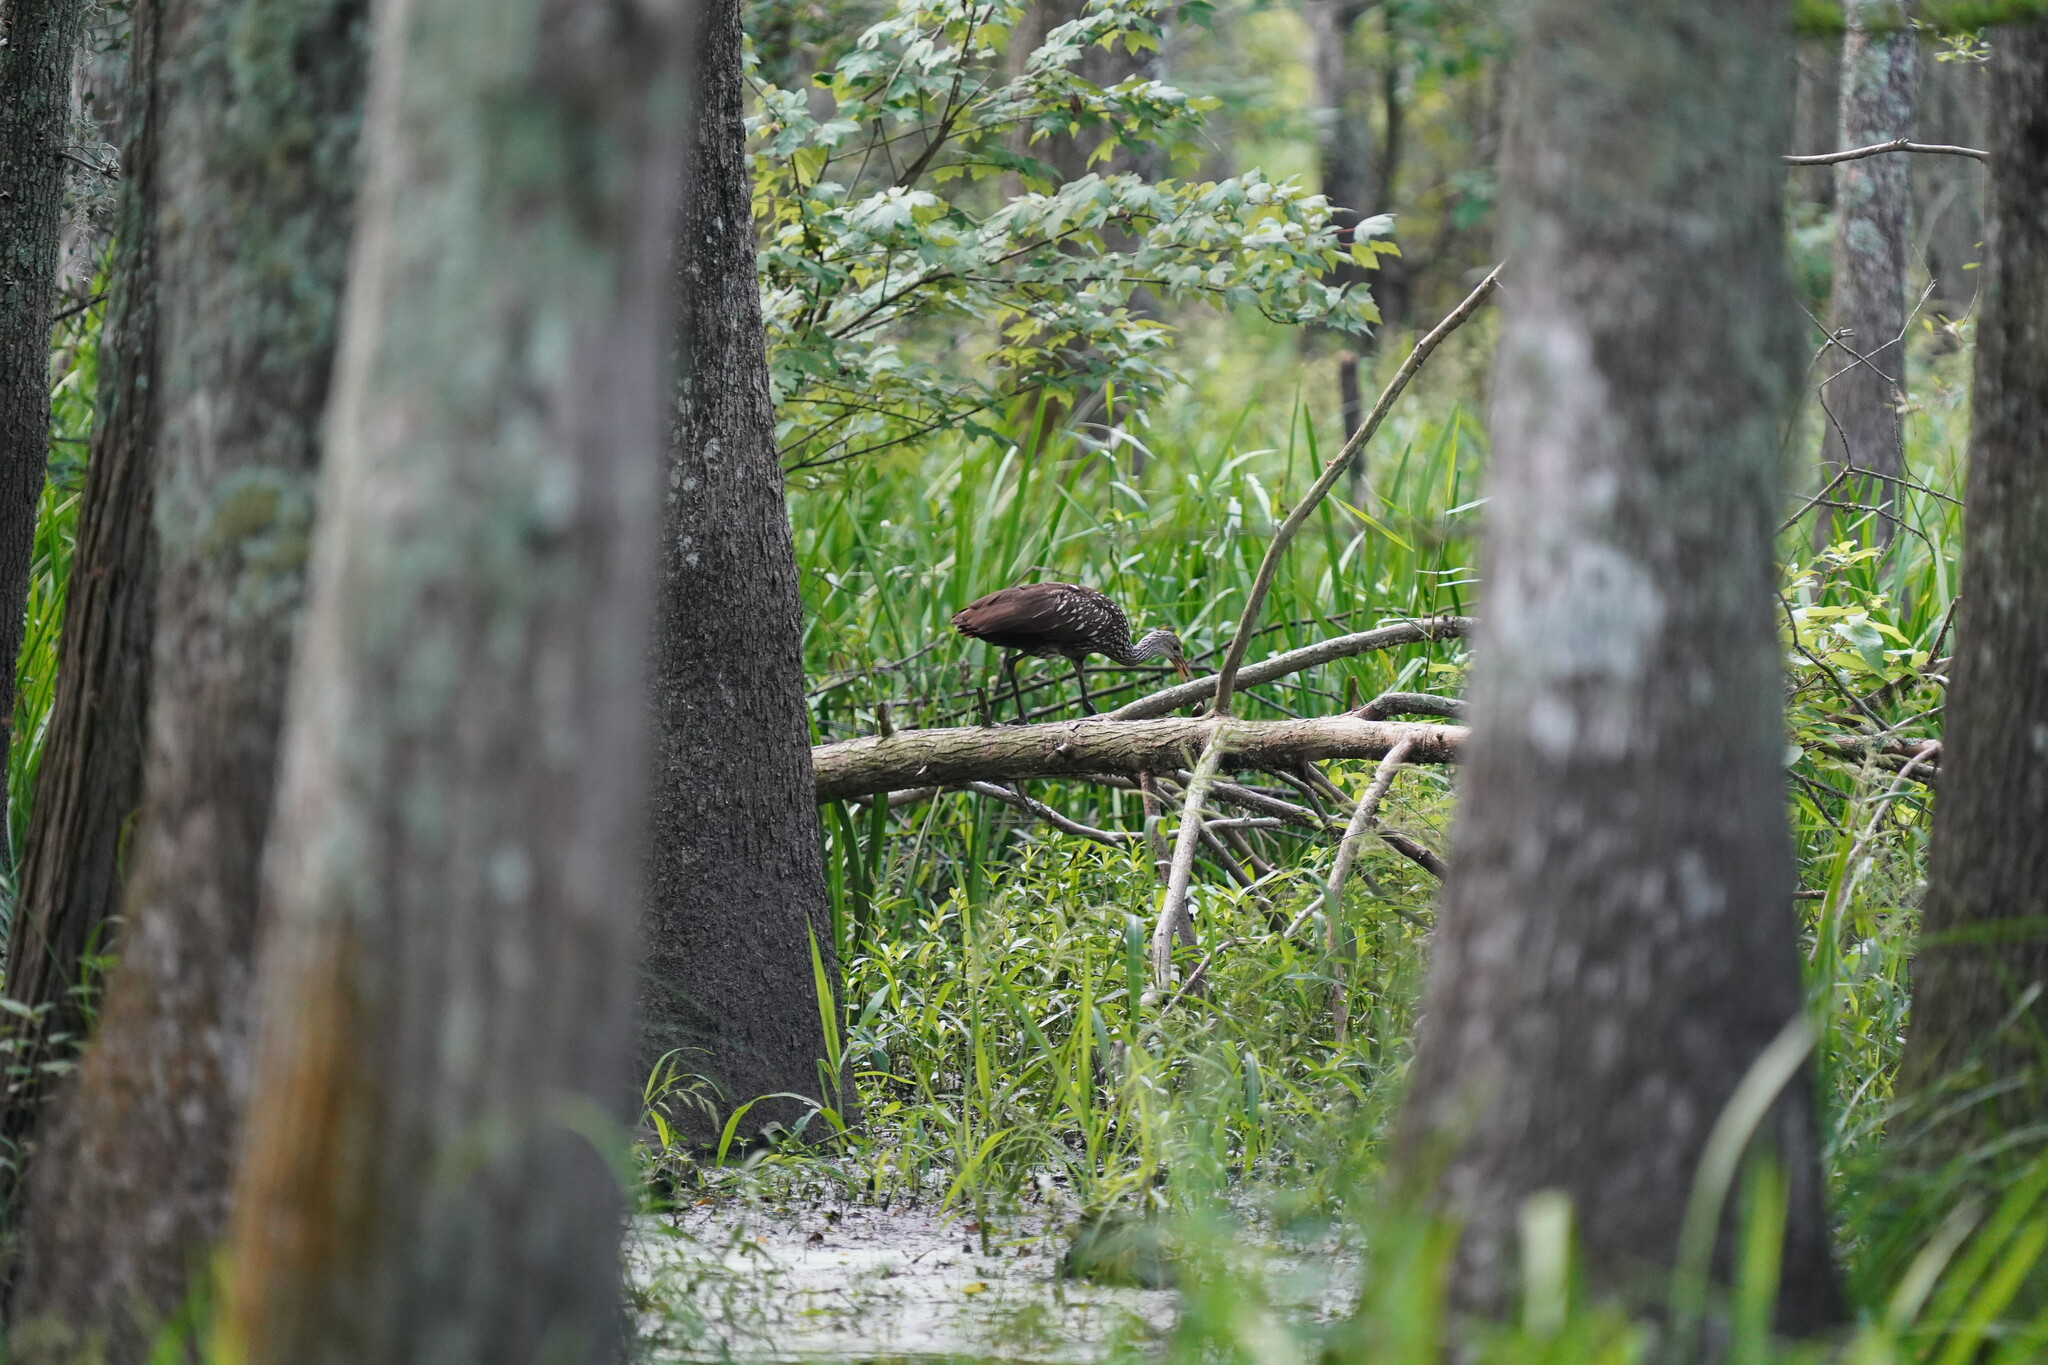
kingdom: Animalia
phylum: Chordata
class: Aves
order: Gruiformes
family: Aramidae
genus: Aramus
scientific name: Aramus guarauna
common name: Limpkin
